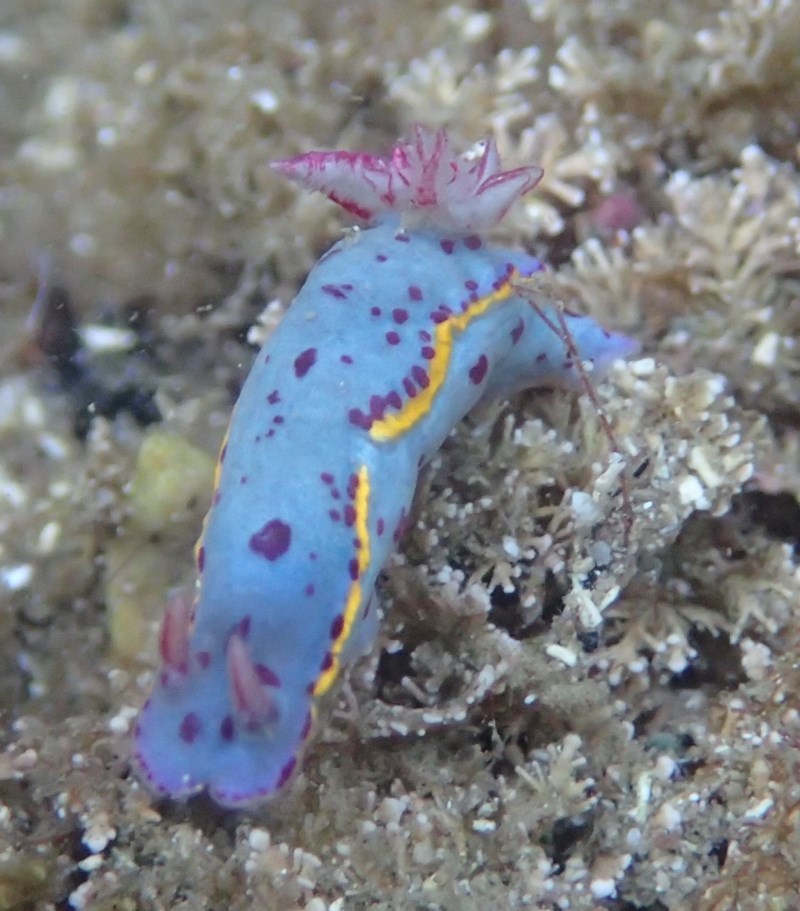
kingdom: Animalia
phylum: Mollusca
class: Gastropoda
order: Nudibranchia
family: Chromodorididae
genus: Hypselodoris
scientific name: Hypselodoris bennetti
